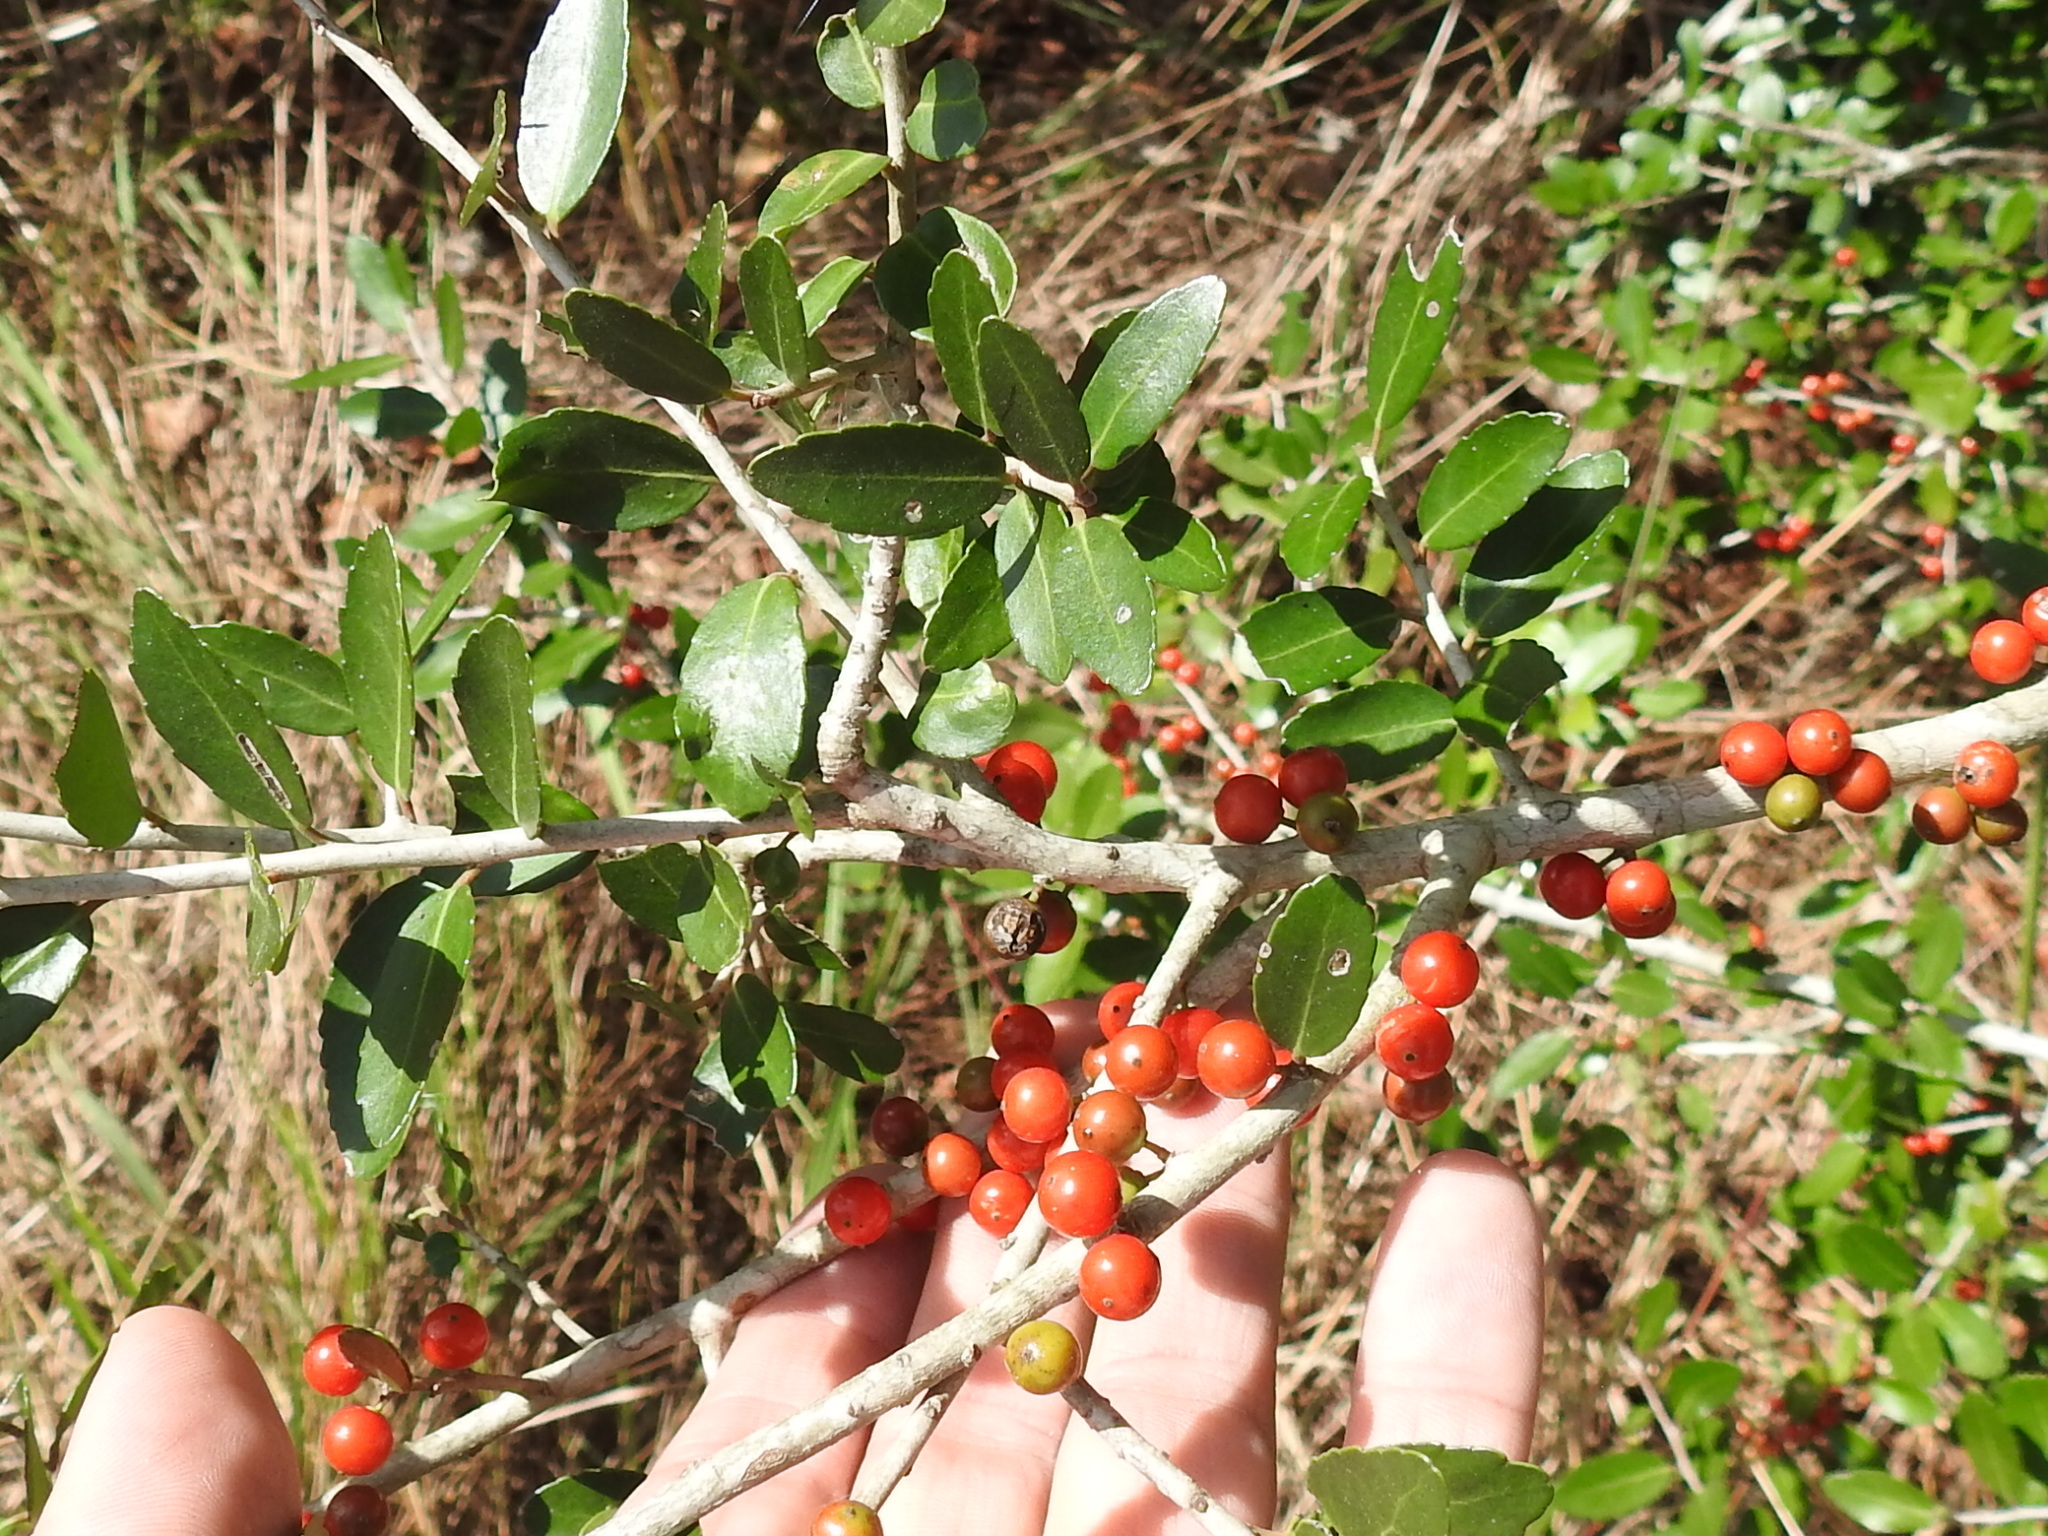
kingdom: Plantae
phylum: Tracheophyta
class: Magnoliopsida
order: Aquifoliales
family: Aquifoliaceae
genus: Ilex
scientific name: Ilex vomitoria
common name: Yaupon holly
